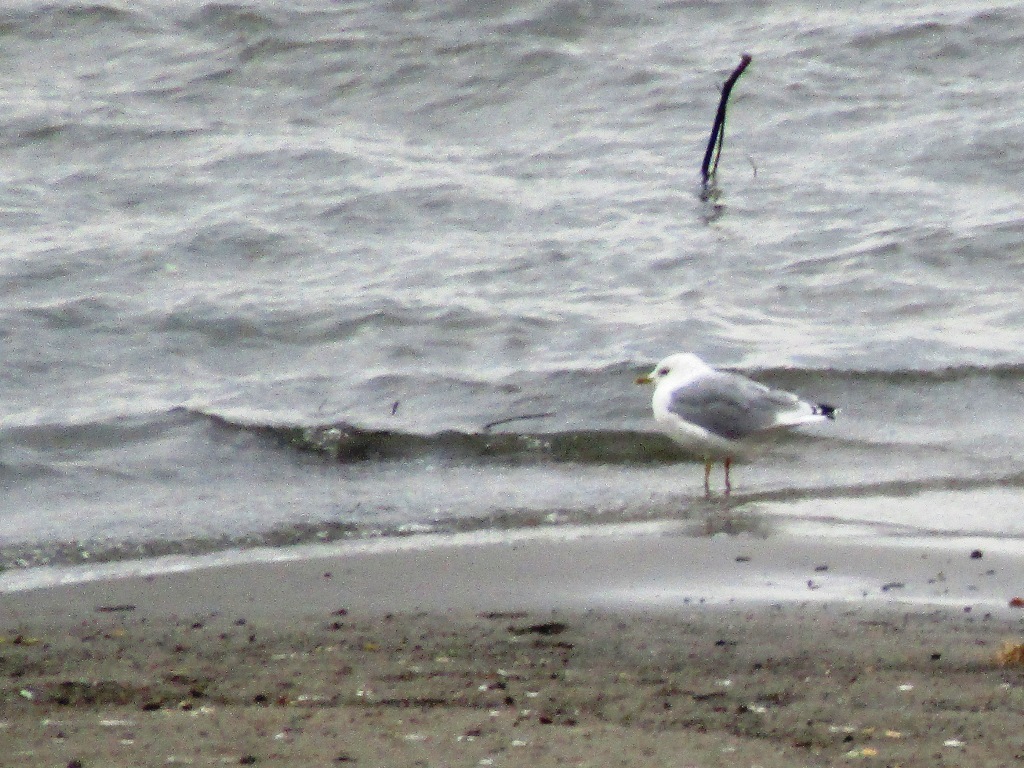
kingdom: Animalia
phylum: Chordata
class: Aves
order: Charadriiformes
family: Laridae
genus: Larus
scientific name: Larus canus
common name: Mew gull
